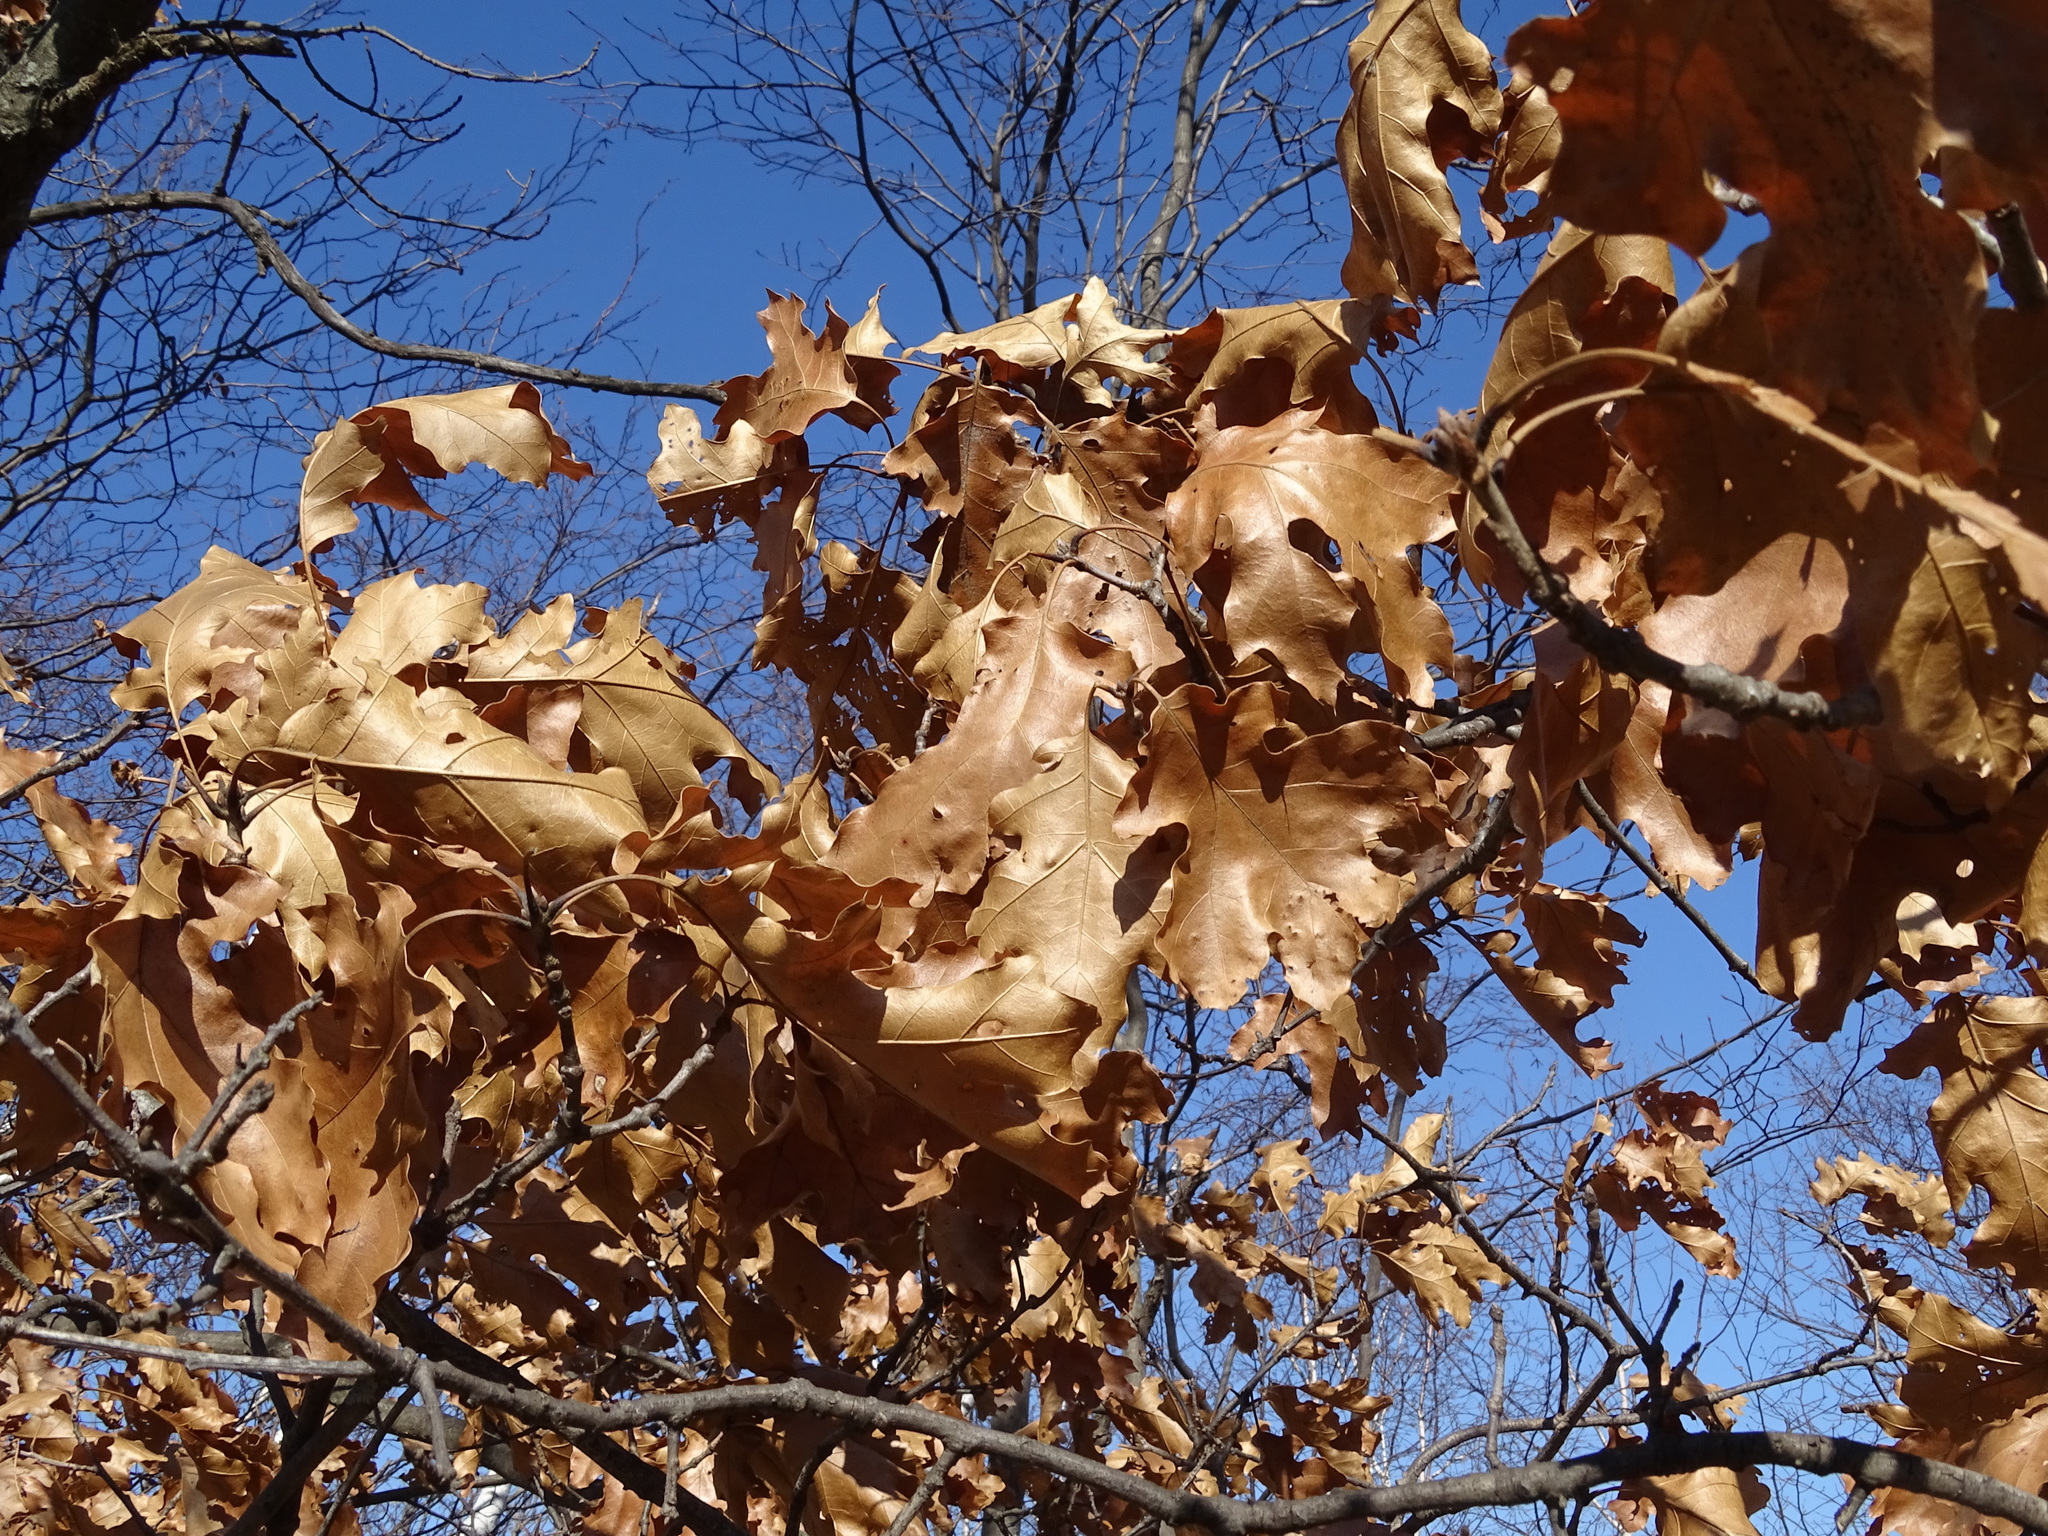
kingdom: Plantae
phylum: Tracheophyta
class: Magnoliopsida
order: Fagales
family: Fagaceae
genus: Quercus
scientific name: Quercus velutina
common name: Black oak
